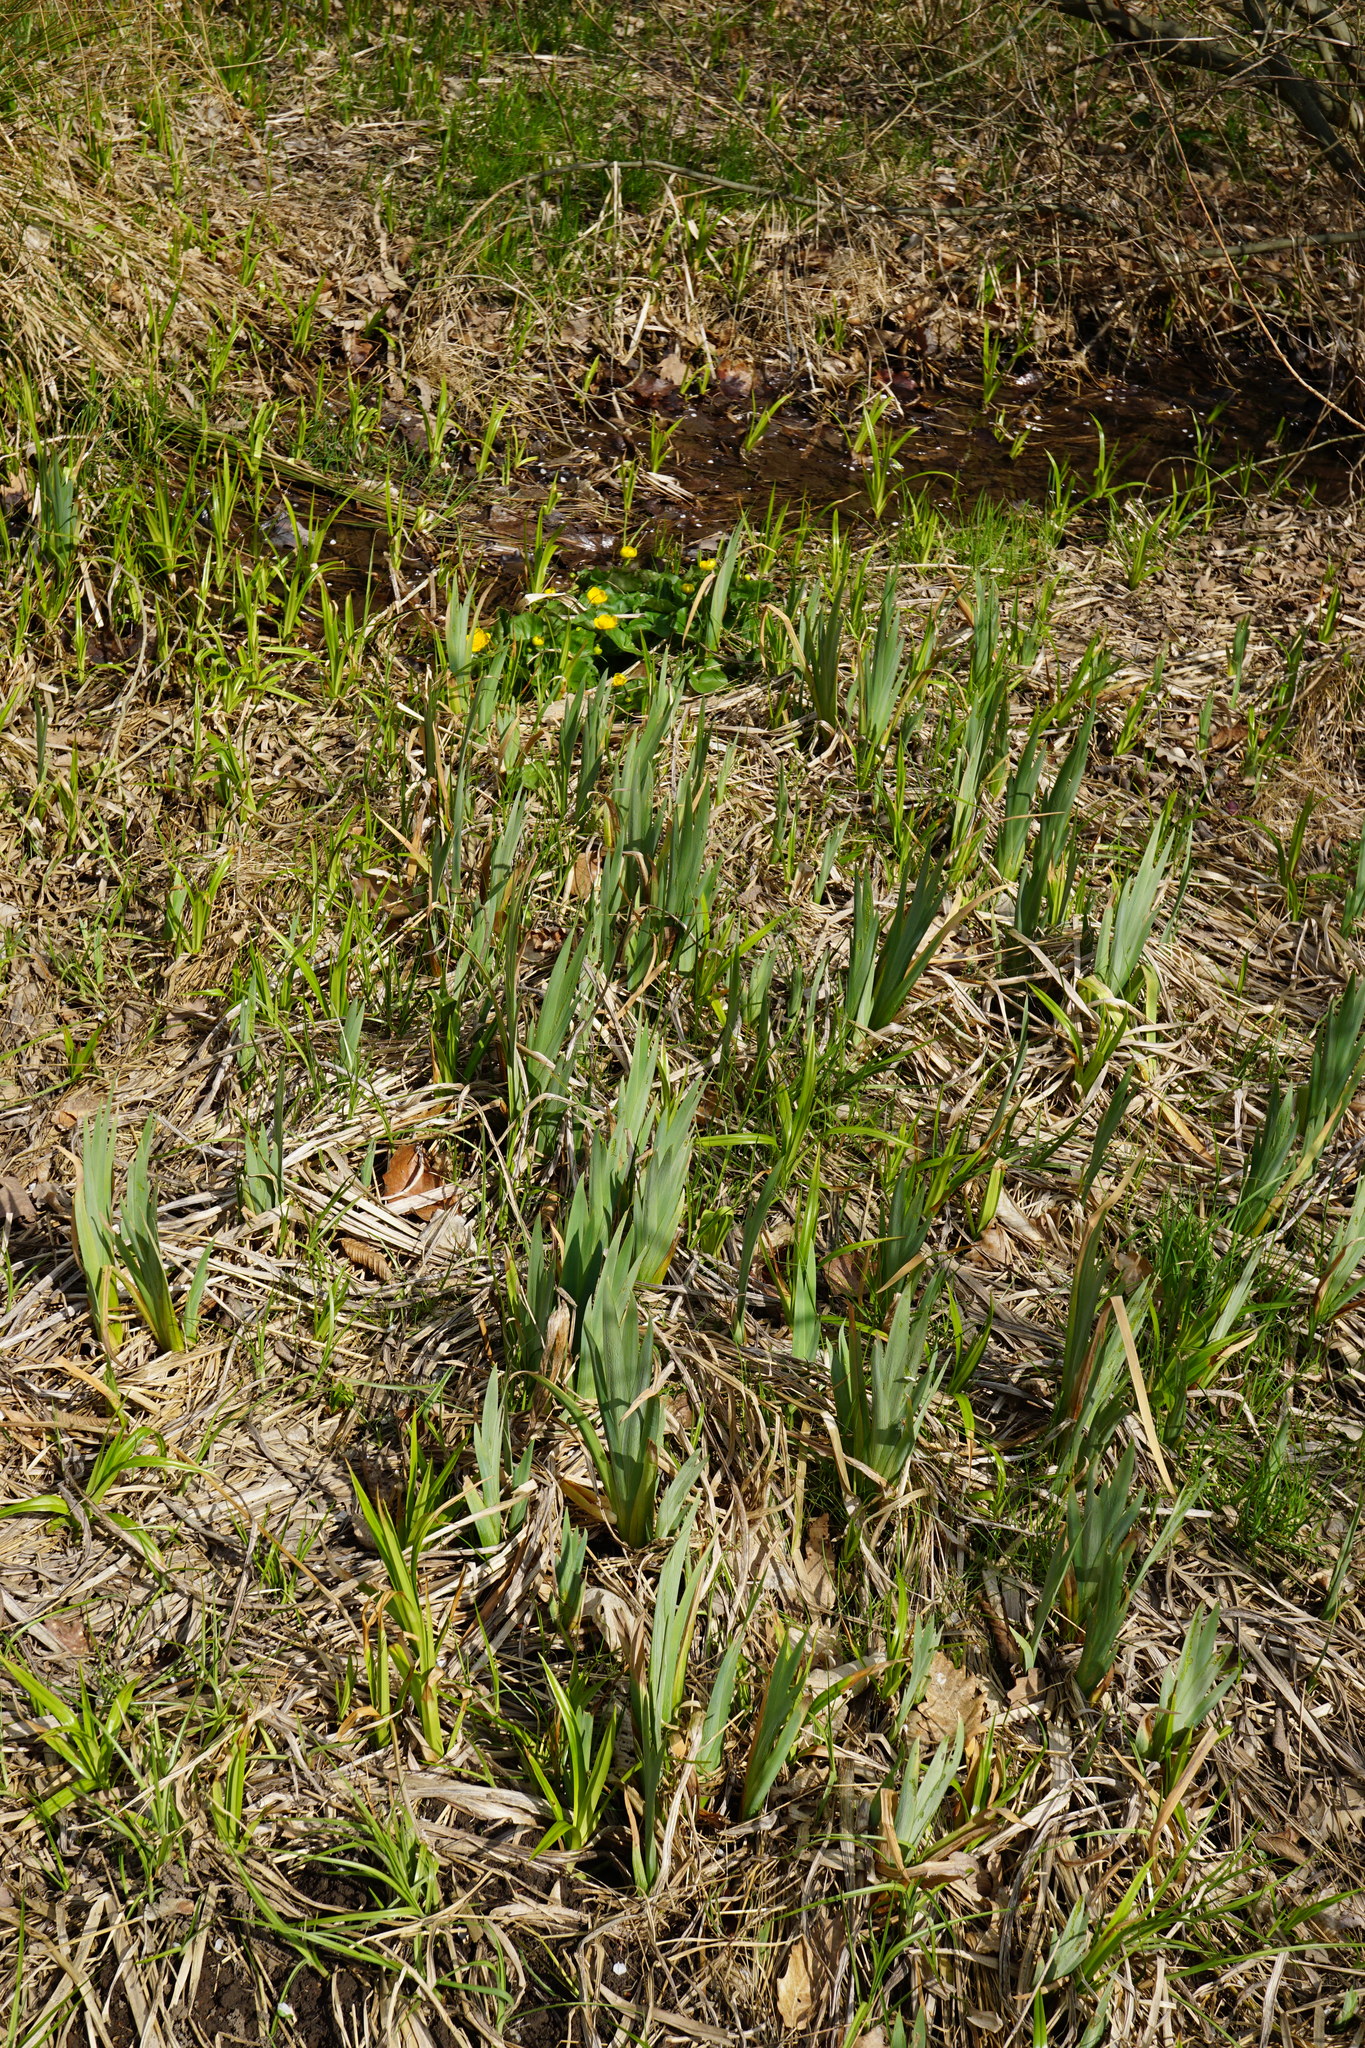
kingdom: Plantae
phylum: Tracheophyta
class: Liliopsida
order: Asparagales
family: Iridaceae
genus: Iris
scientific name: Iris pseudacorus
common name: Yellow flag
